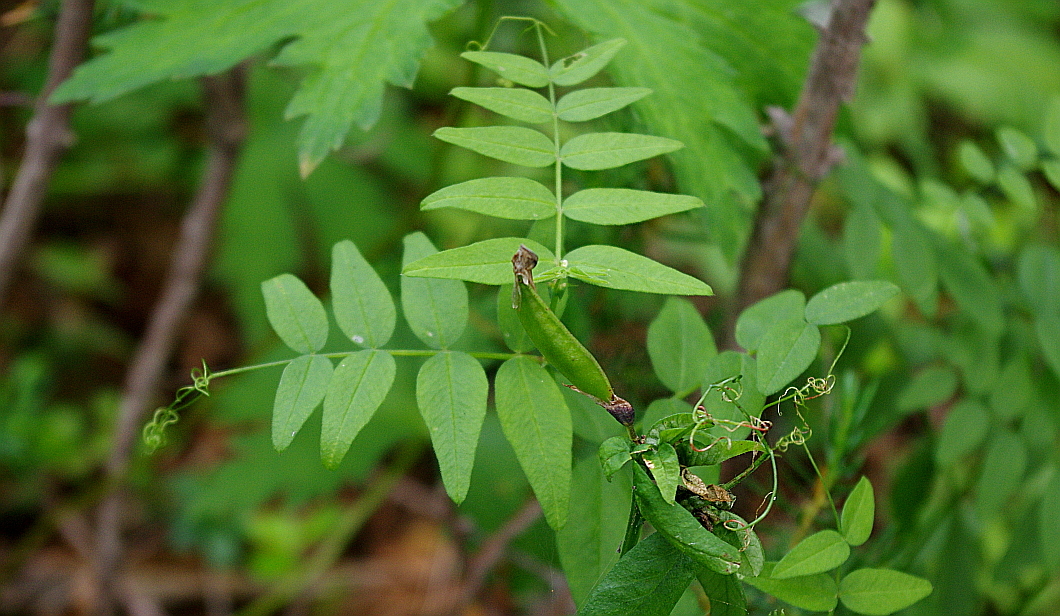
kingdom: Plantae
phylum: Tracheophyta
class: Magnoliopsida
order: Fabales
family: Fabaceae
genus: Vicia
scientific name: Vicia sepium
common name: Bush vetch
